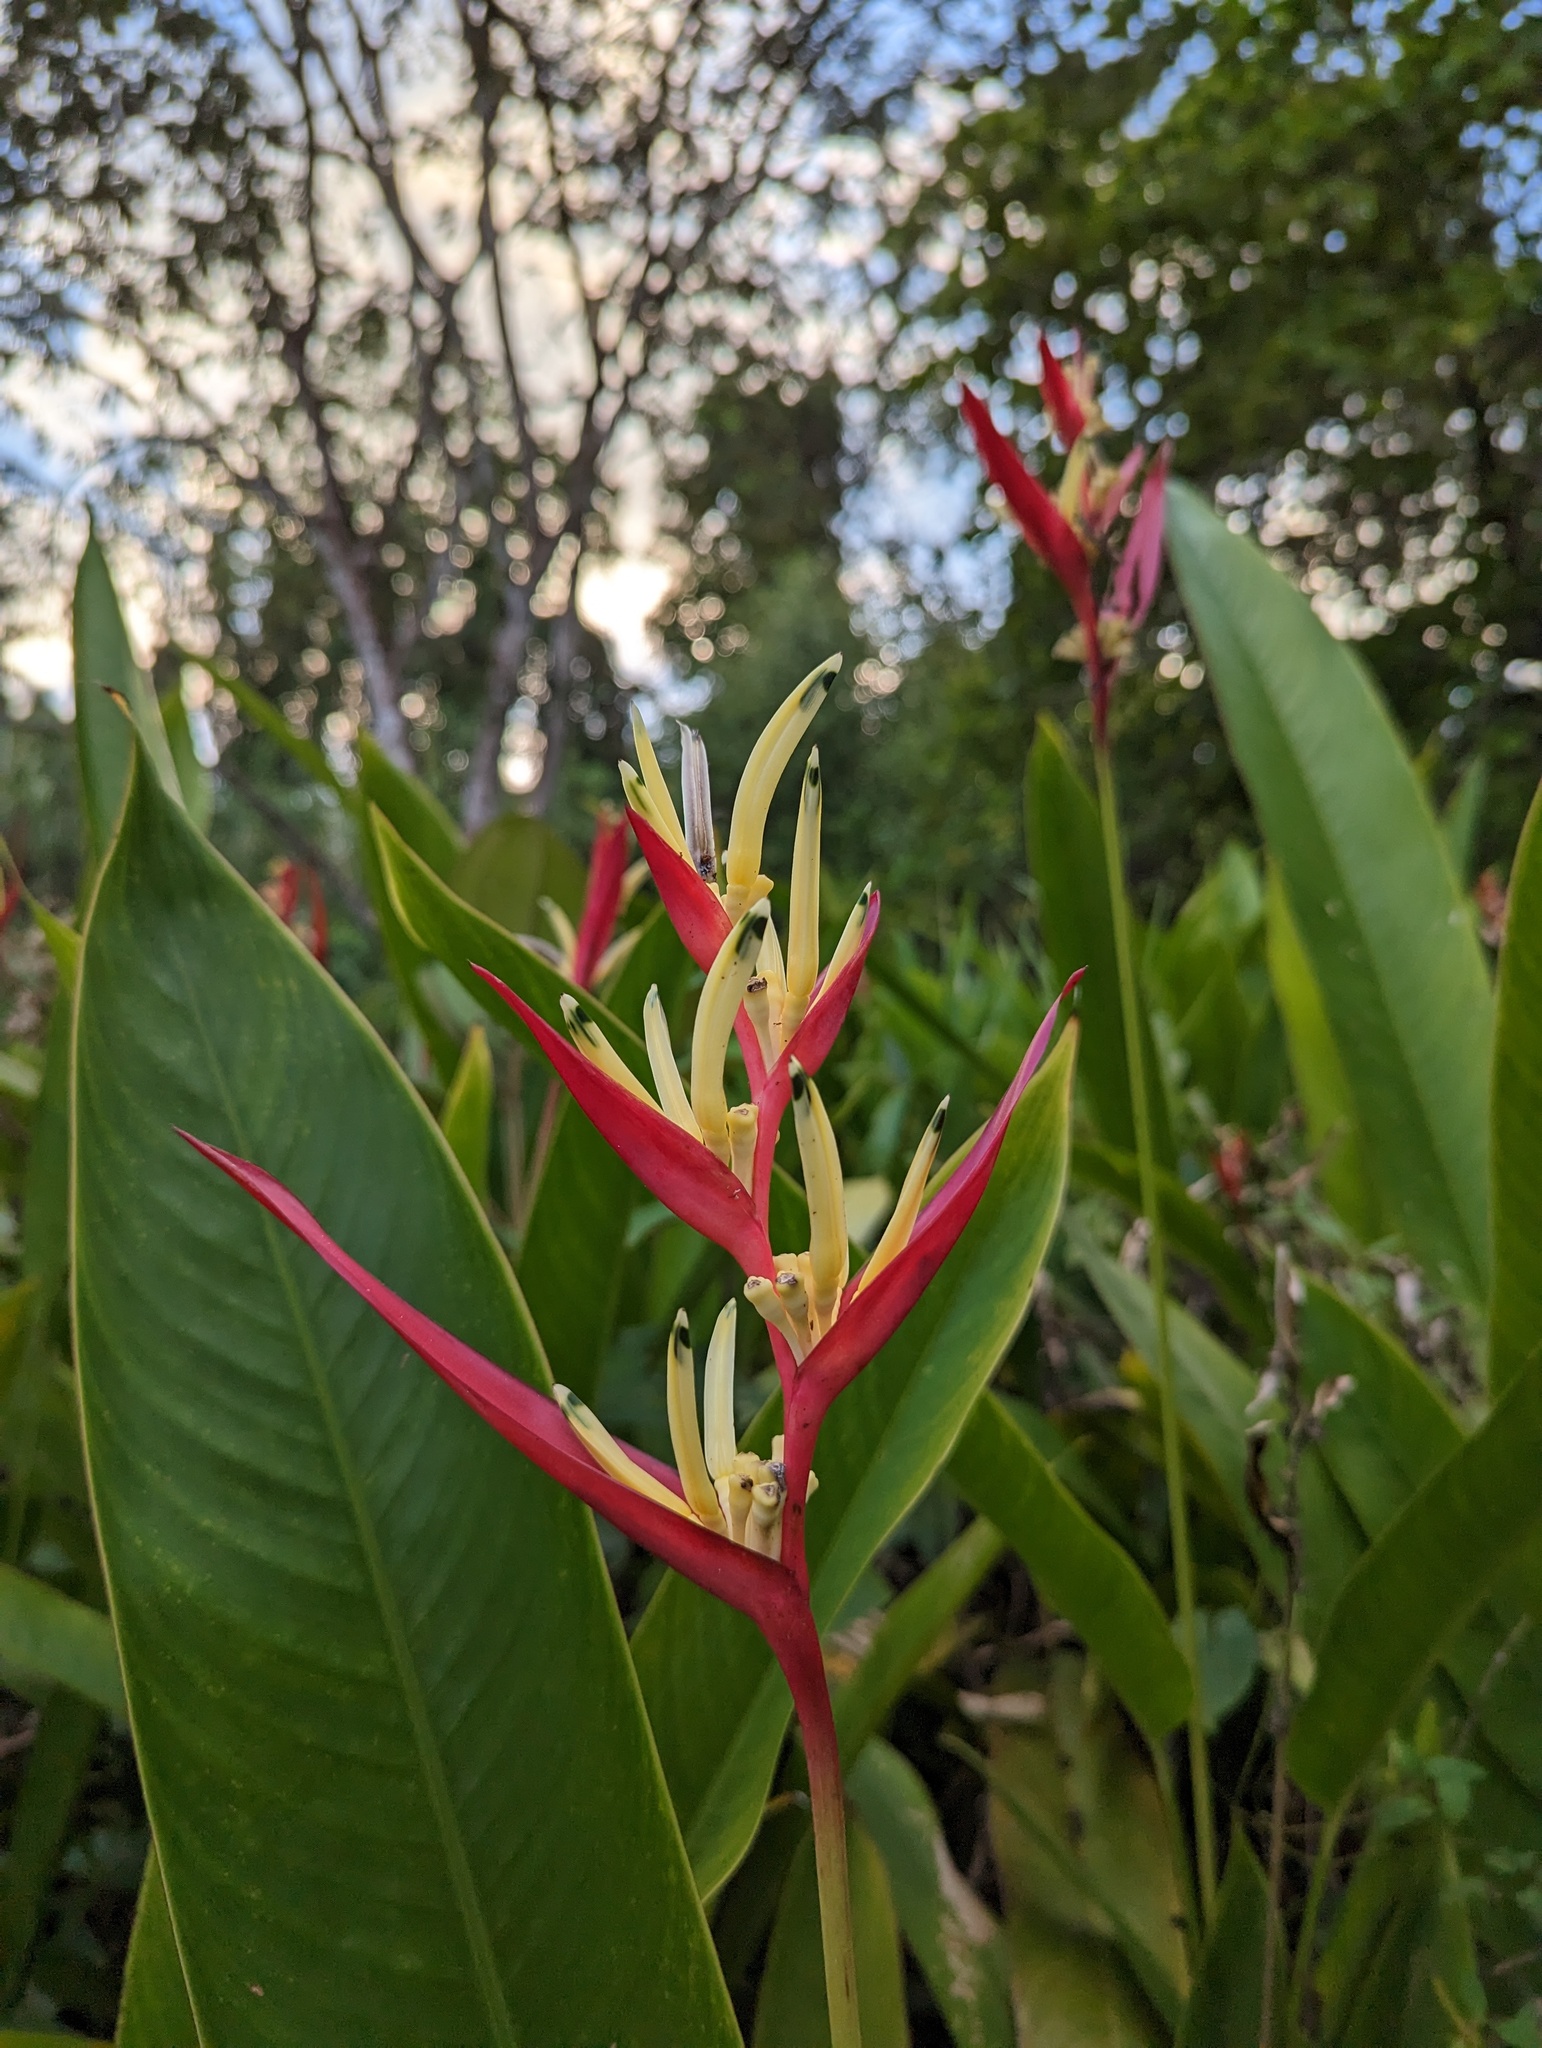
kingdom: Plantae
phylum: Tracheophyta
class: Liliopsida
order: Zingiberales
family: Heliconiaceae
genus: Heliconia
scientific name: Heliconia psittacorum
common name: Parrot's-flower
